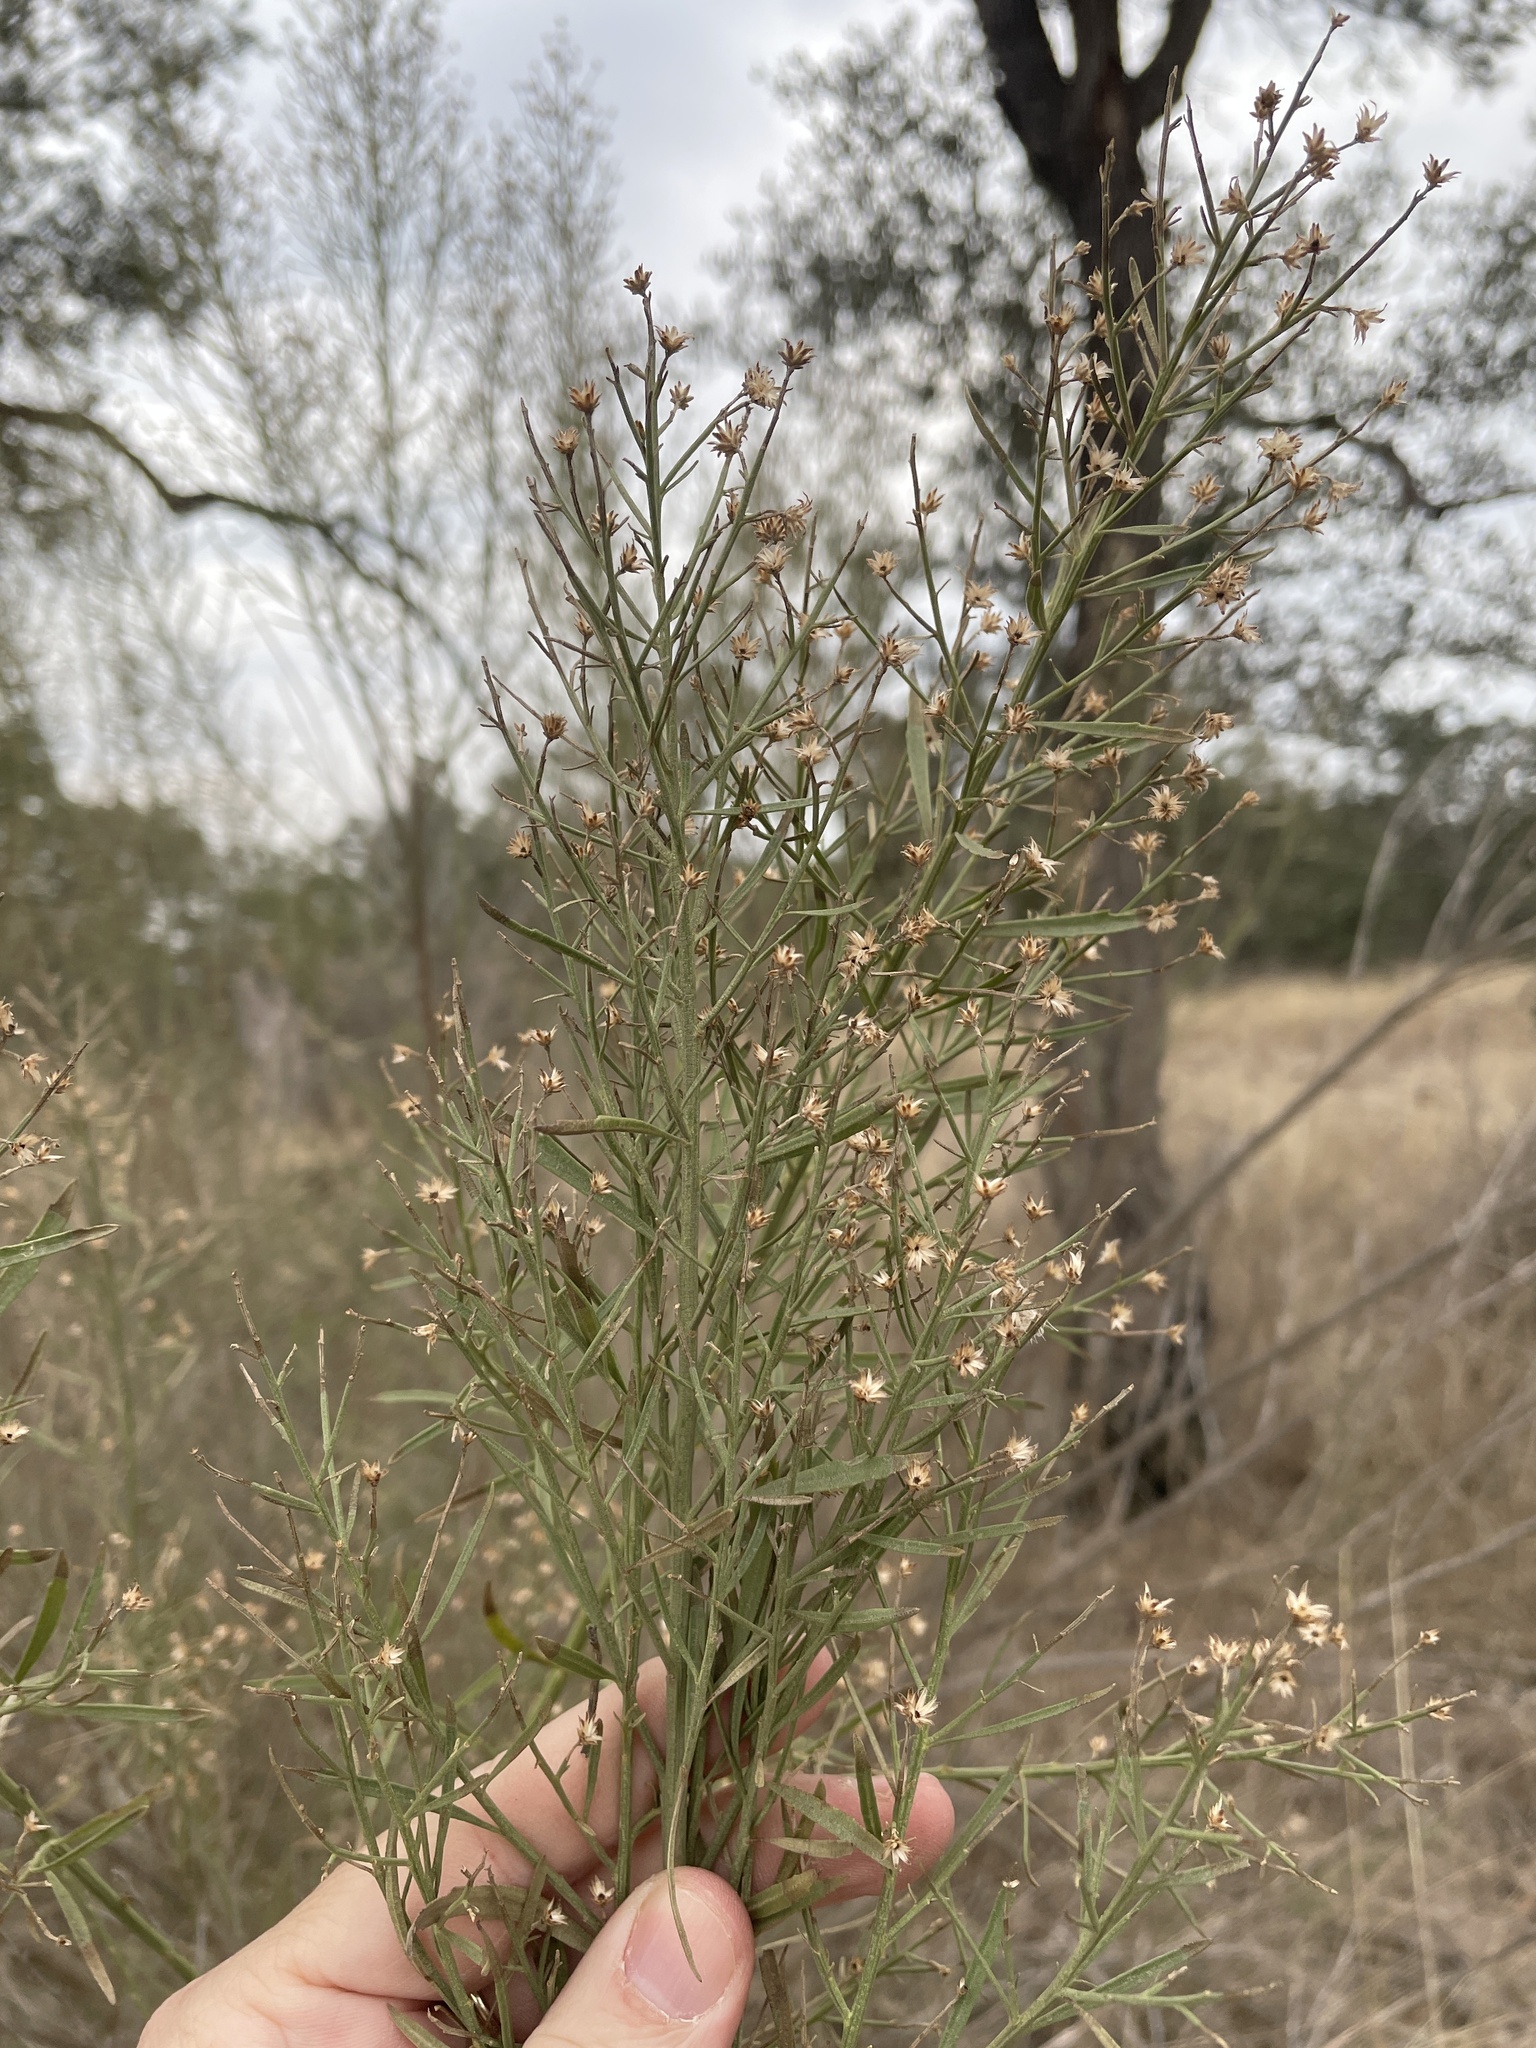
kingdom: Plantae
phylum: Tracheophyta
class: Magnoliopsida
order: Asterales
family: Asteraceae
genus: Baccharis
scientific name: Baccharis neglecta
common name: Roosevelt-weed
